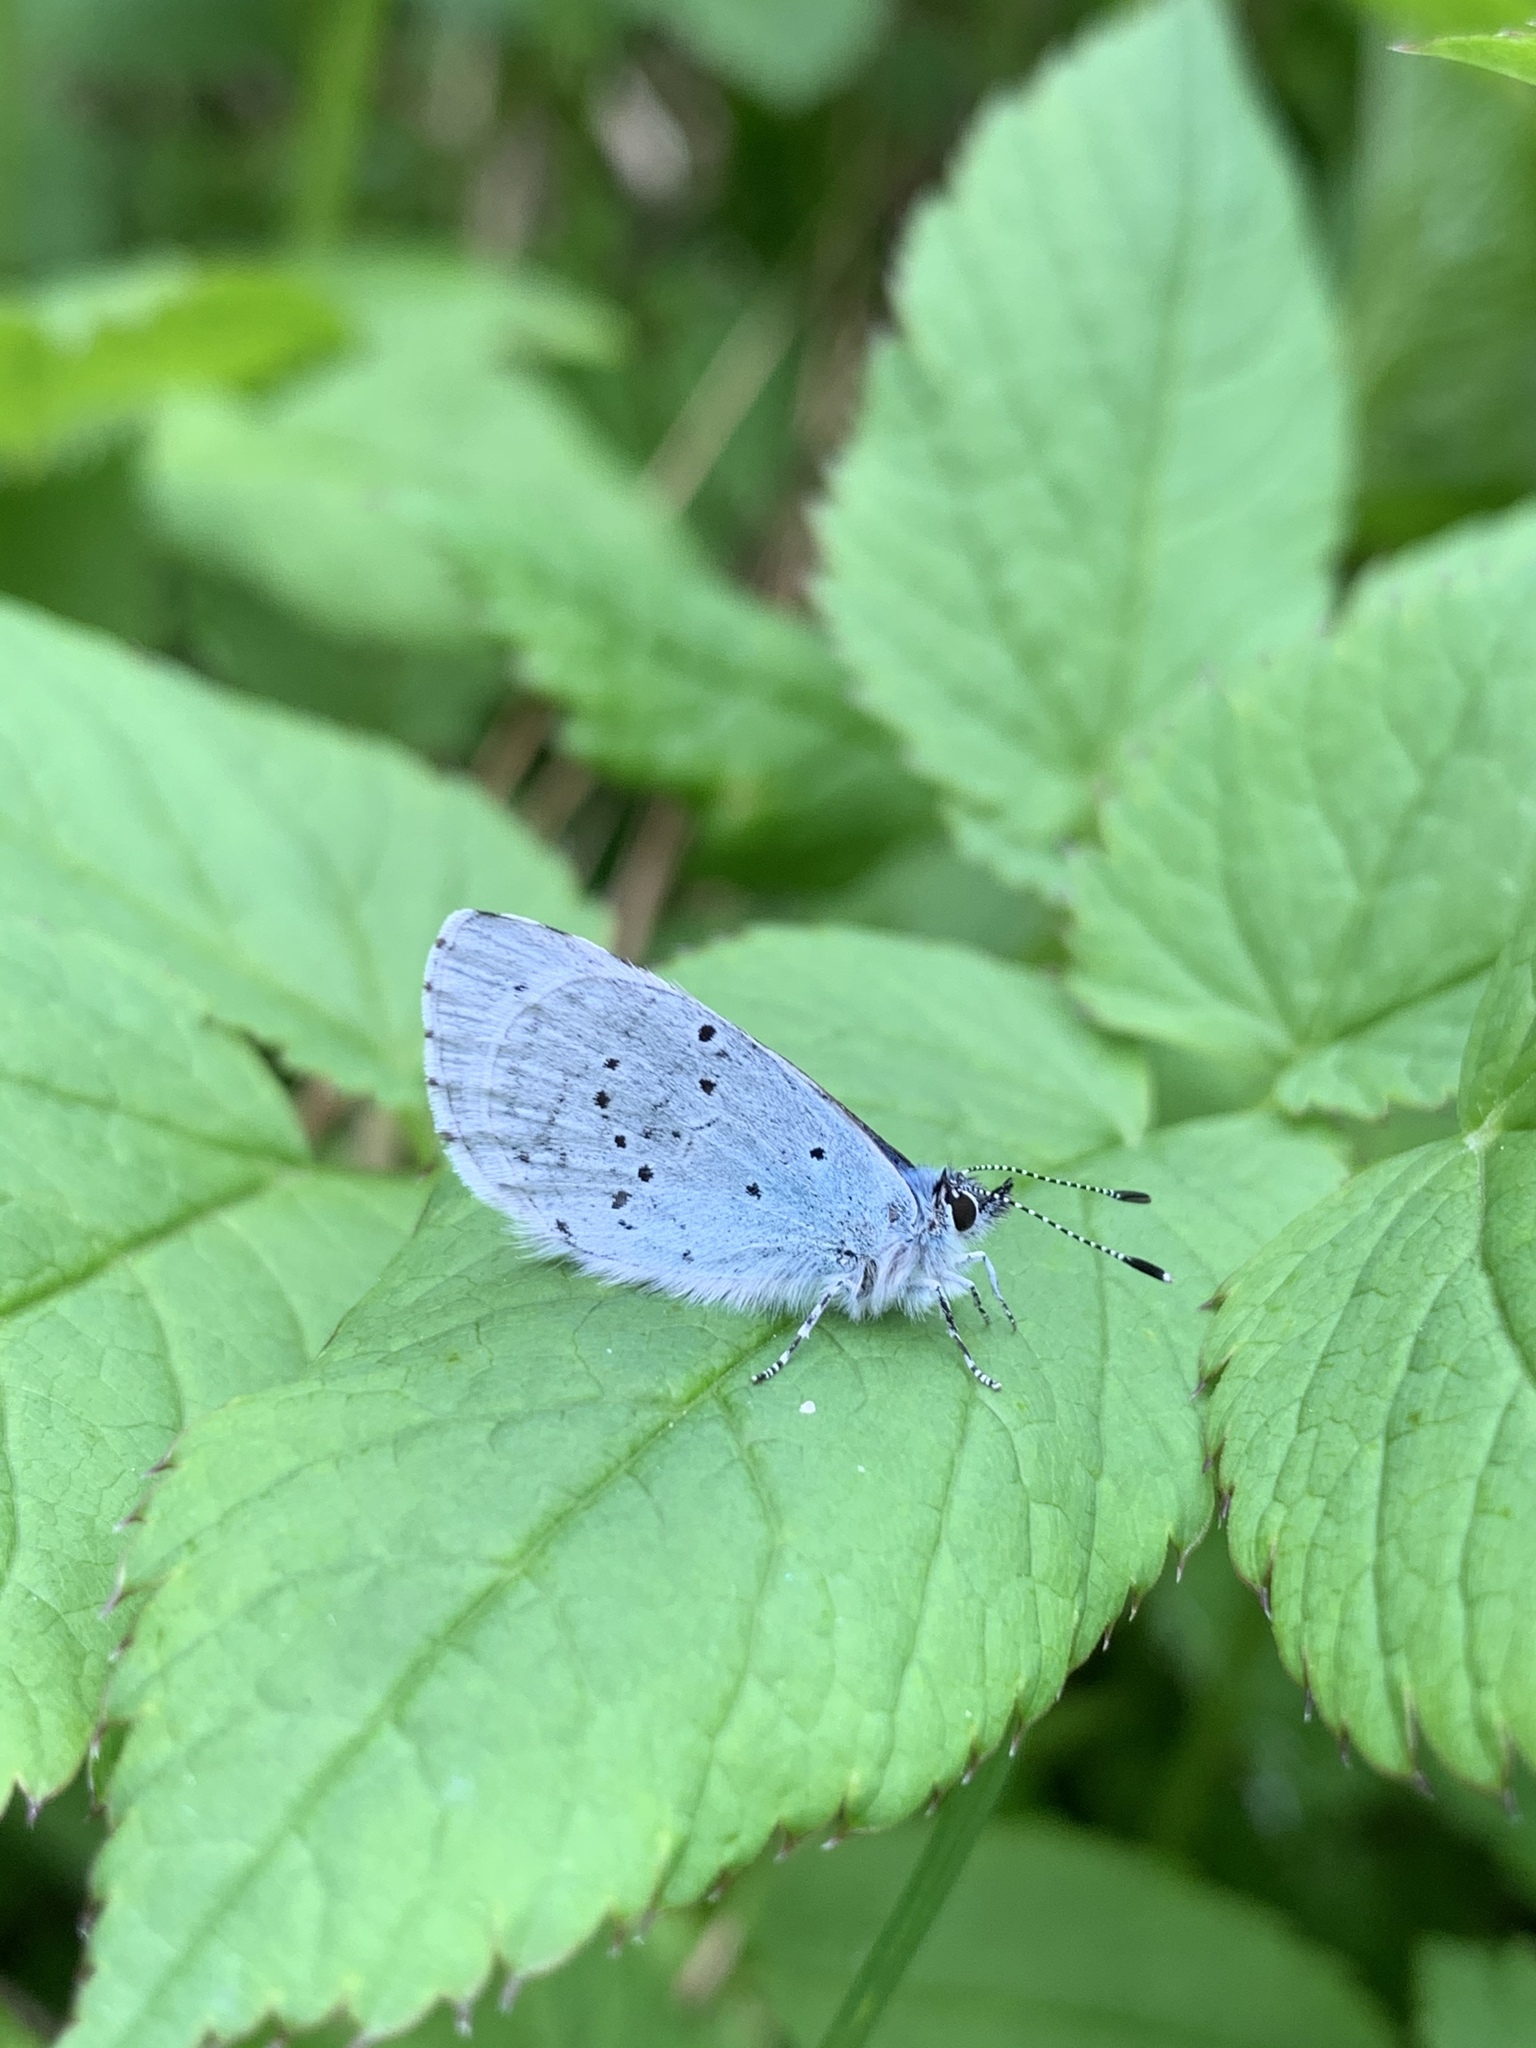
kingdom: Animalia
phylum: Arthropoda
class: Insecta
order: Lepidoptera
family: Lycaenidae
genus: Celastrina
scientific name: Celastrina argiolus
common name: Holly blue
